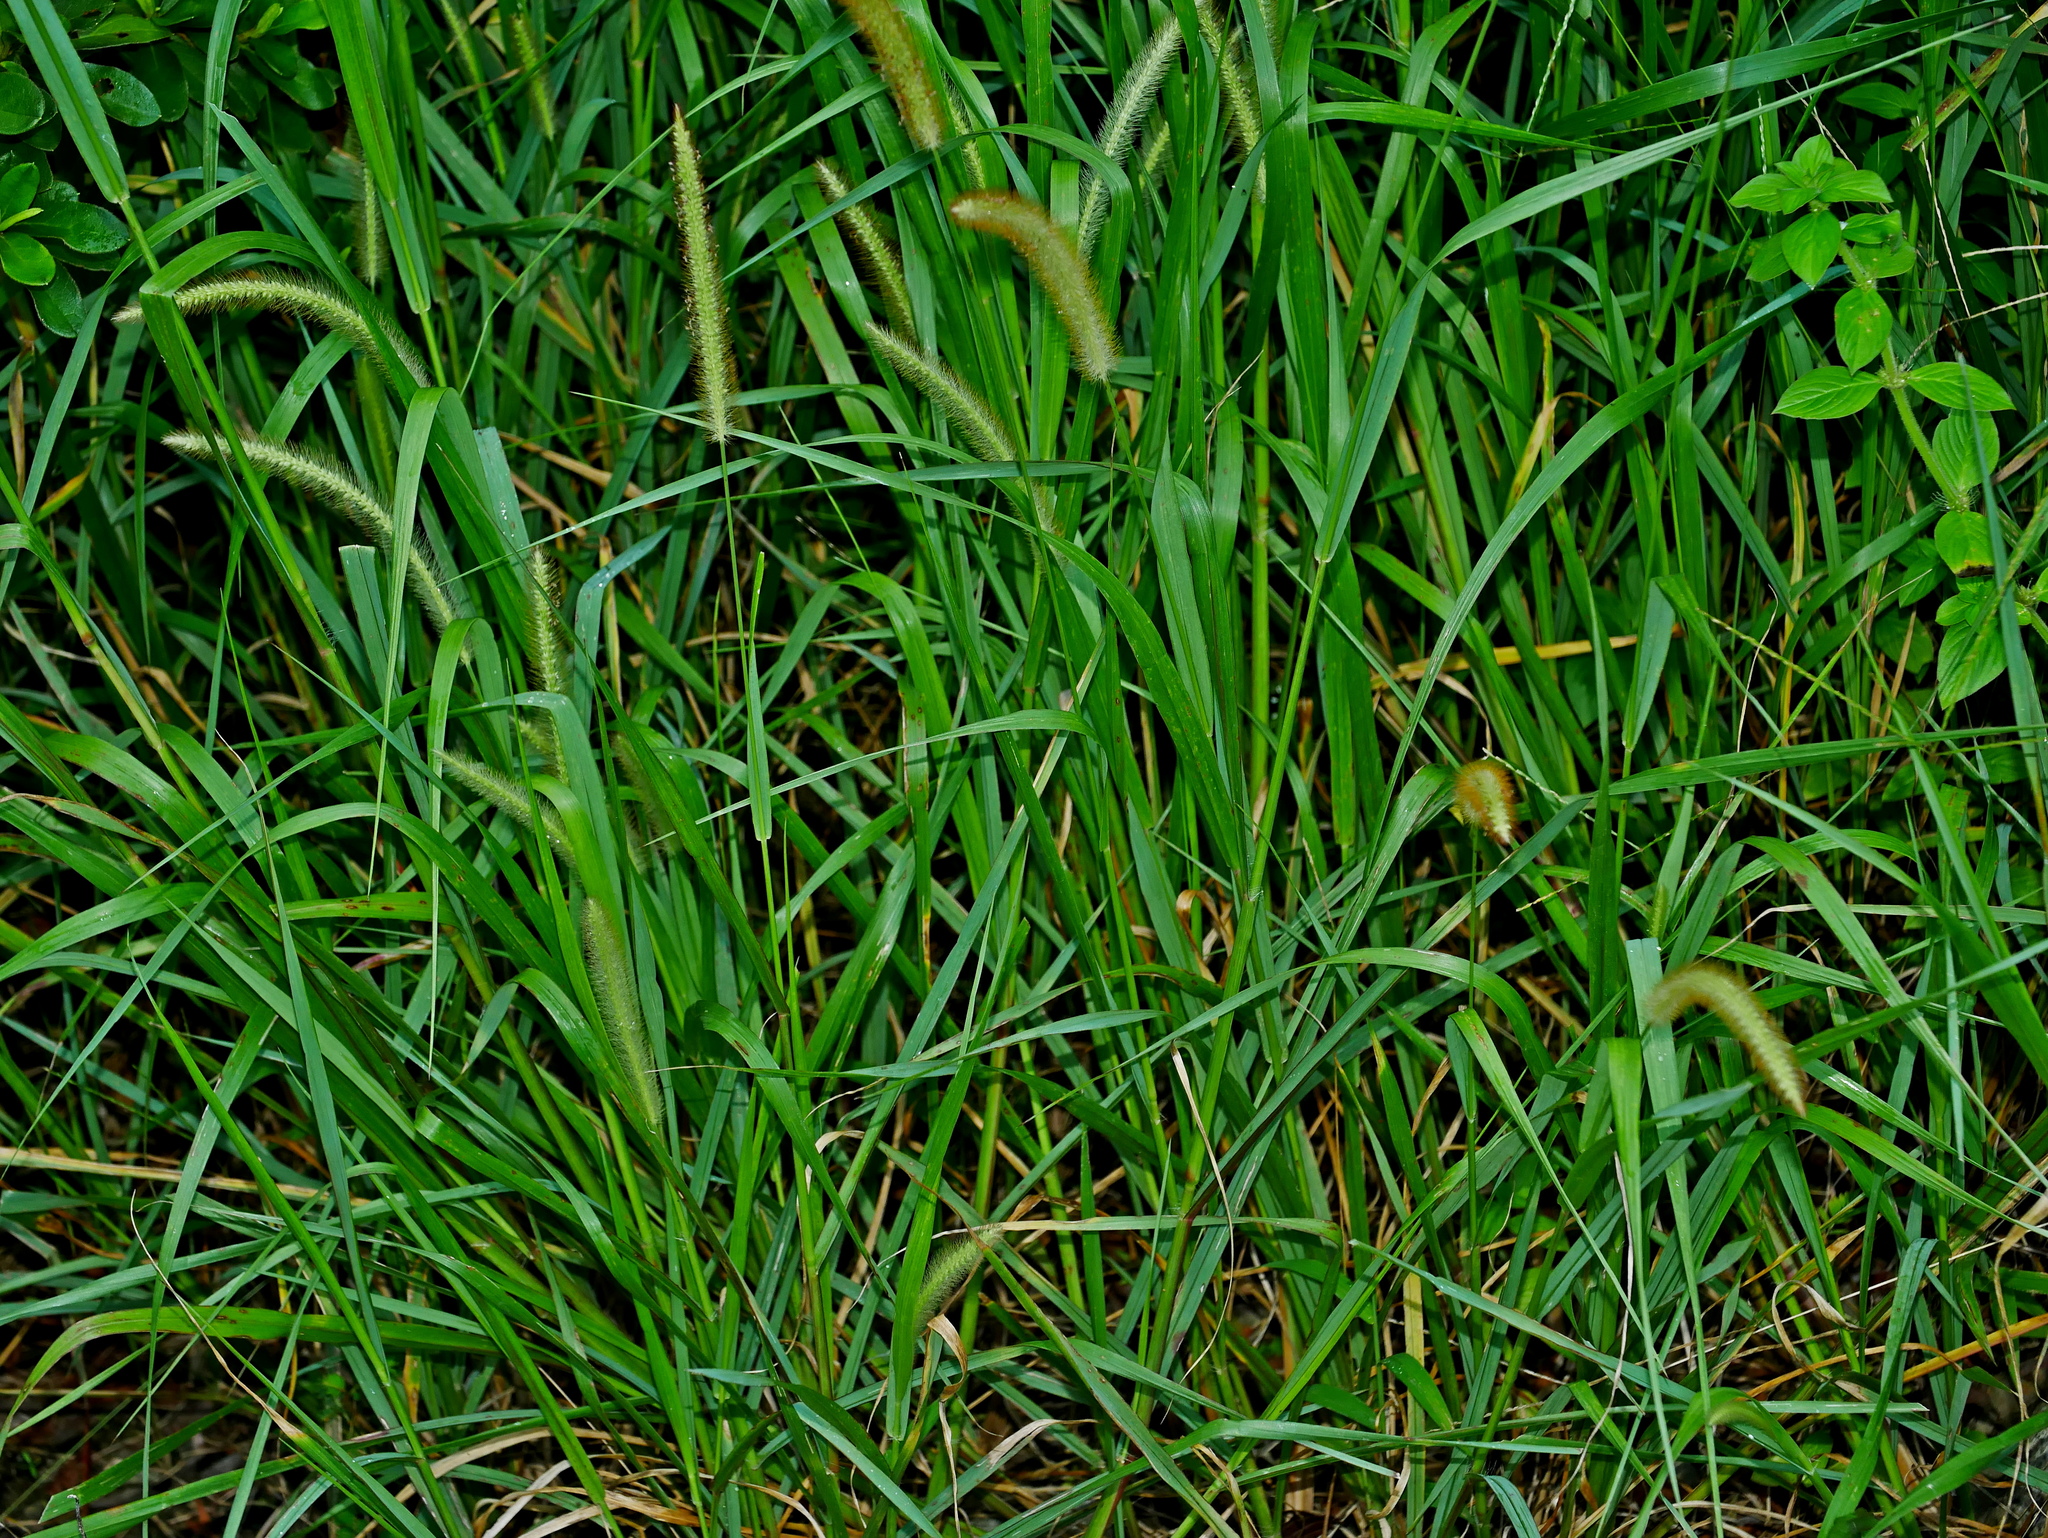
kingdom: Plantae
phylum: Tracheophyta
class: Liliopsida
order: Poales
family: Poaceae
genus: Setaria
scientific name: Setaria sphacelata
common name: African bristlegrass
